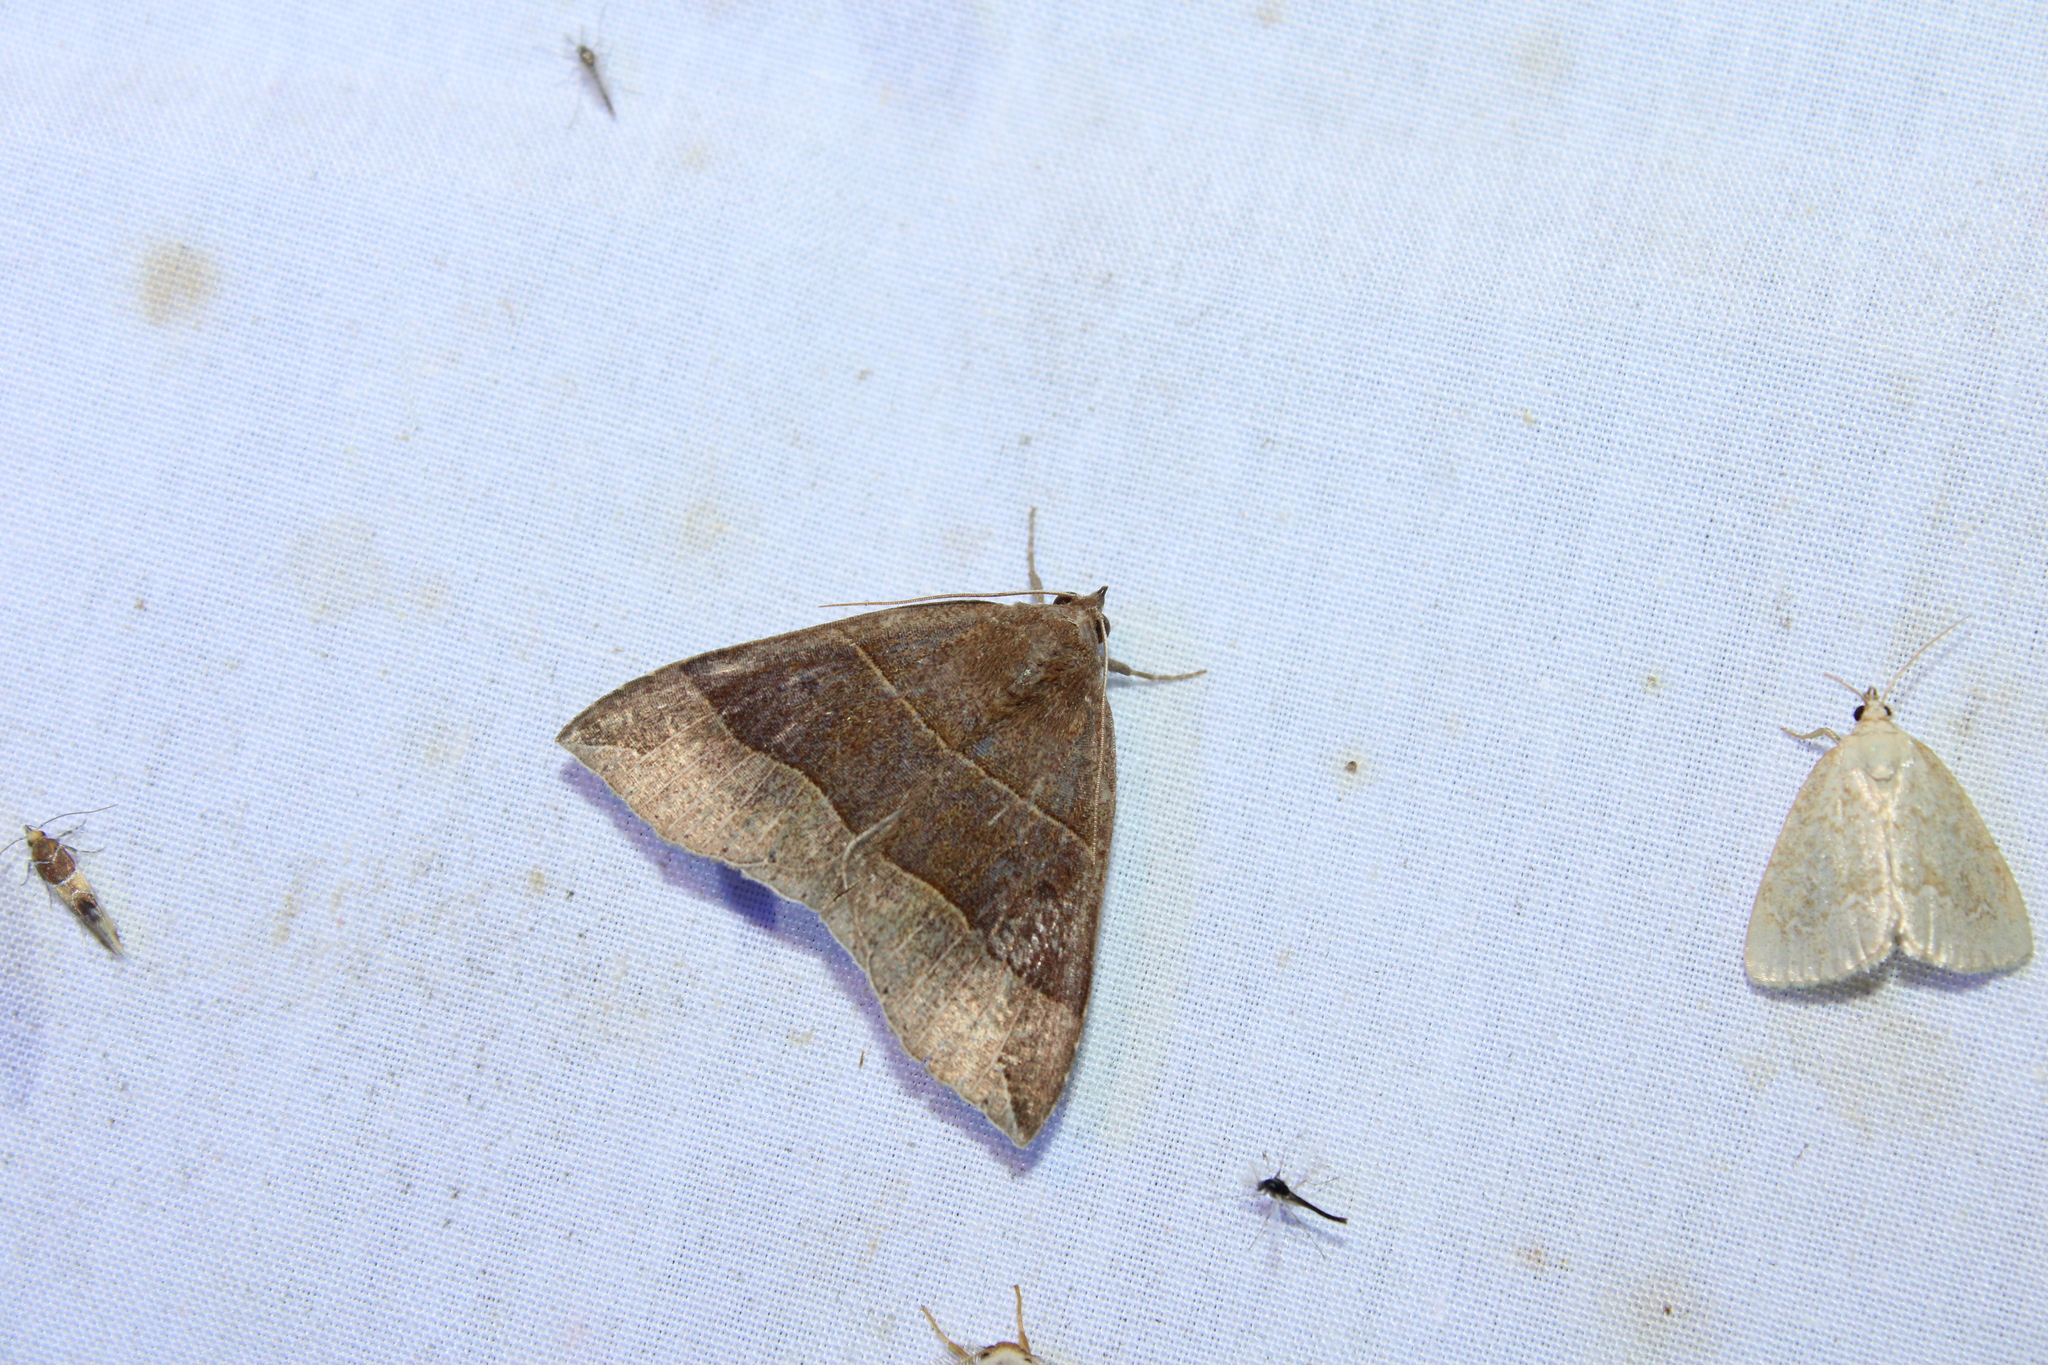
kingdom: Animalia
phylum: Arthropoda
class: Insecta
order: Lepidoptera
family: Erebidae
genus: Parallelia
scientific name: Parallelia bistriaris
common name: Maple looper moth
